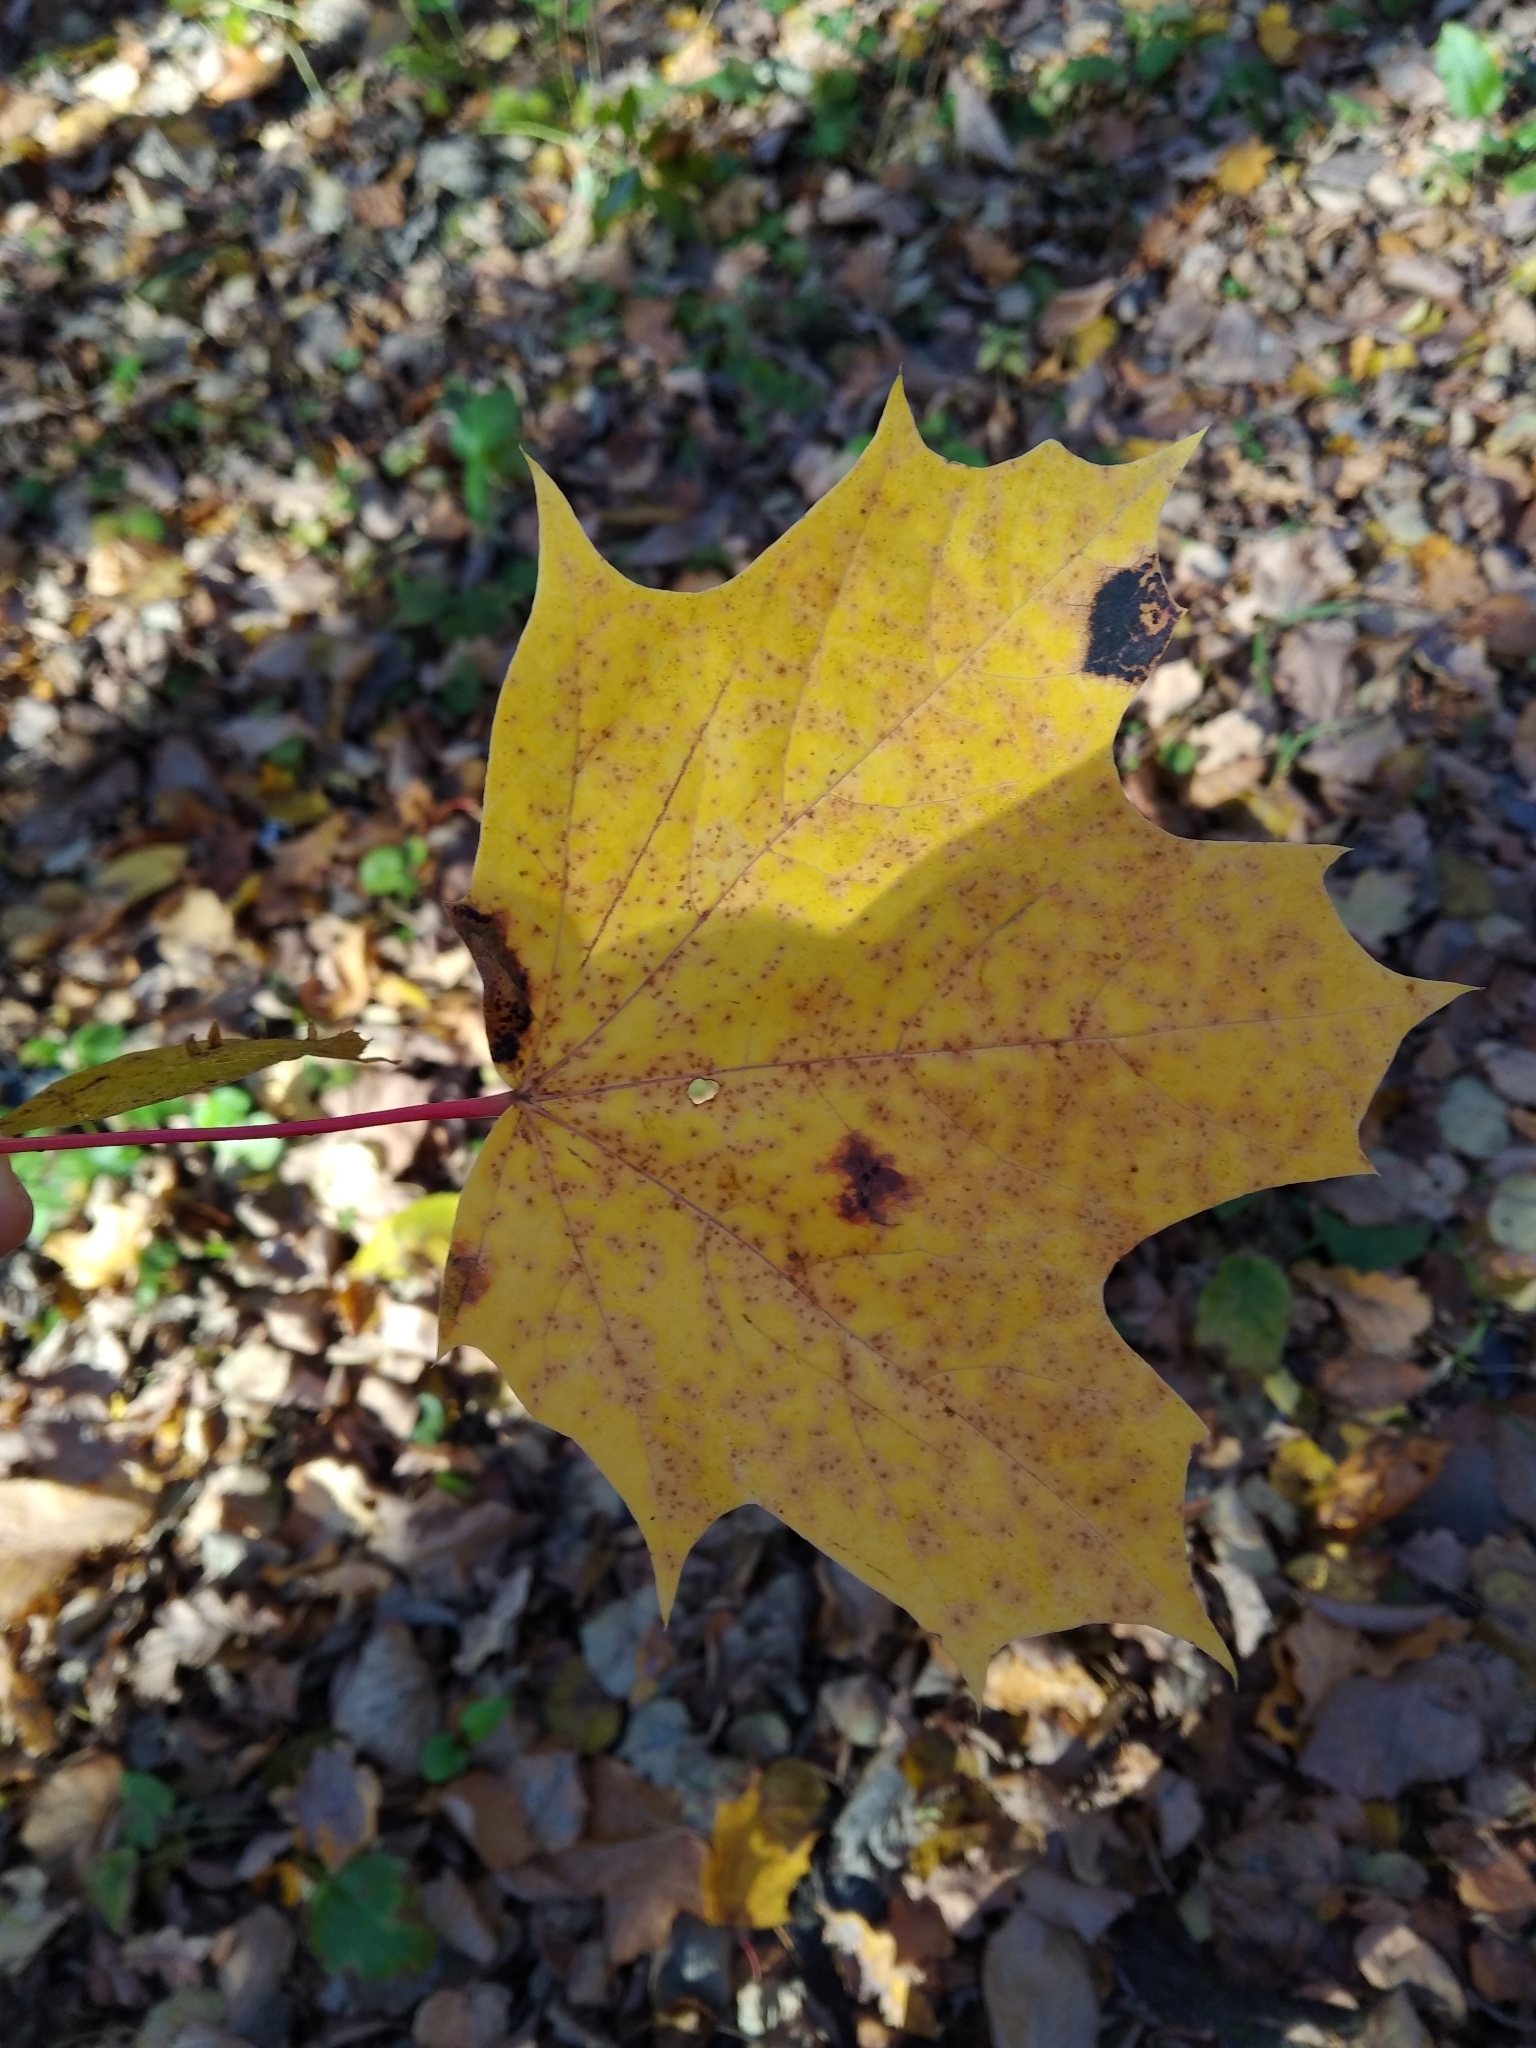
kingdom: Plantae
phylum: Tracheophyta
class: Magnoliopsida
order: Sapindales
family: Sapindaceae
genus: Acer
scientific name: Acer platanoides
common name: Norway maple
